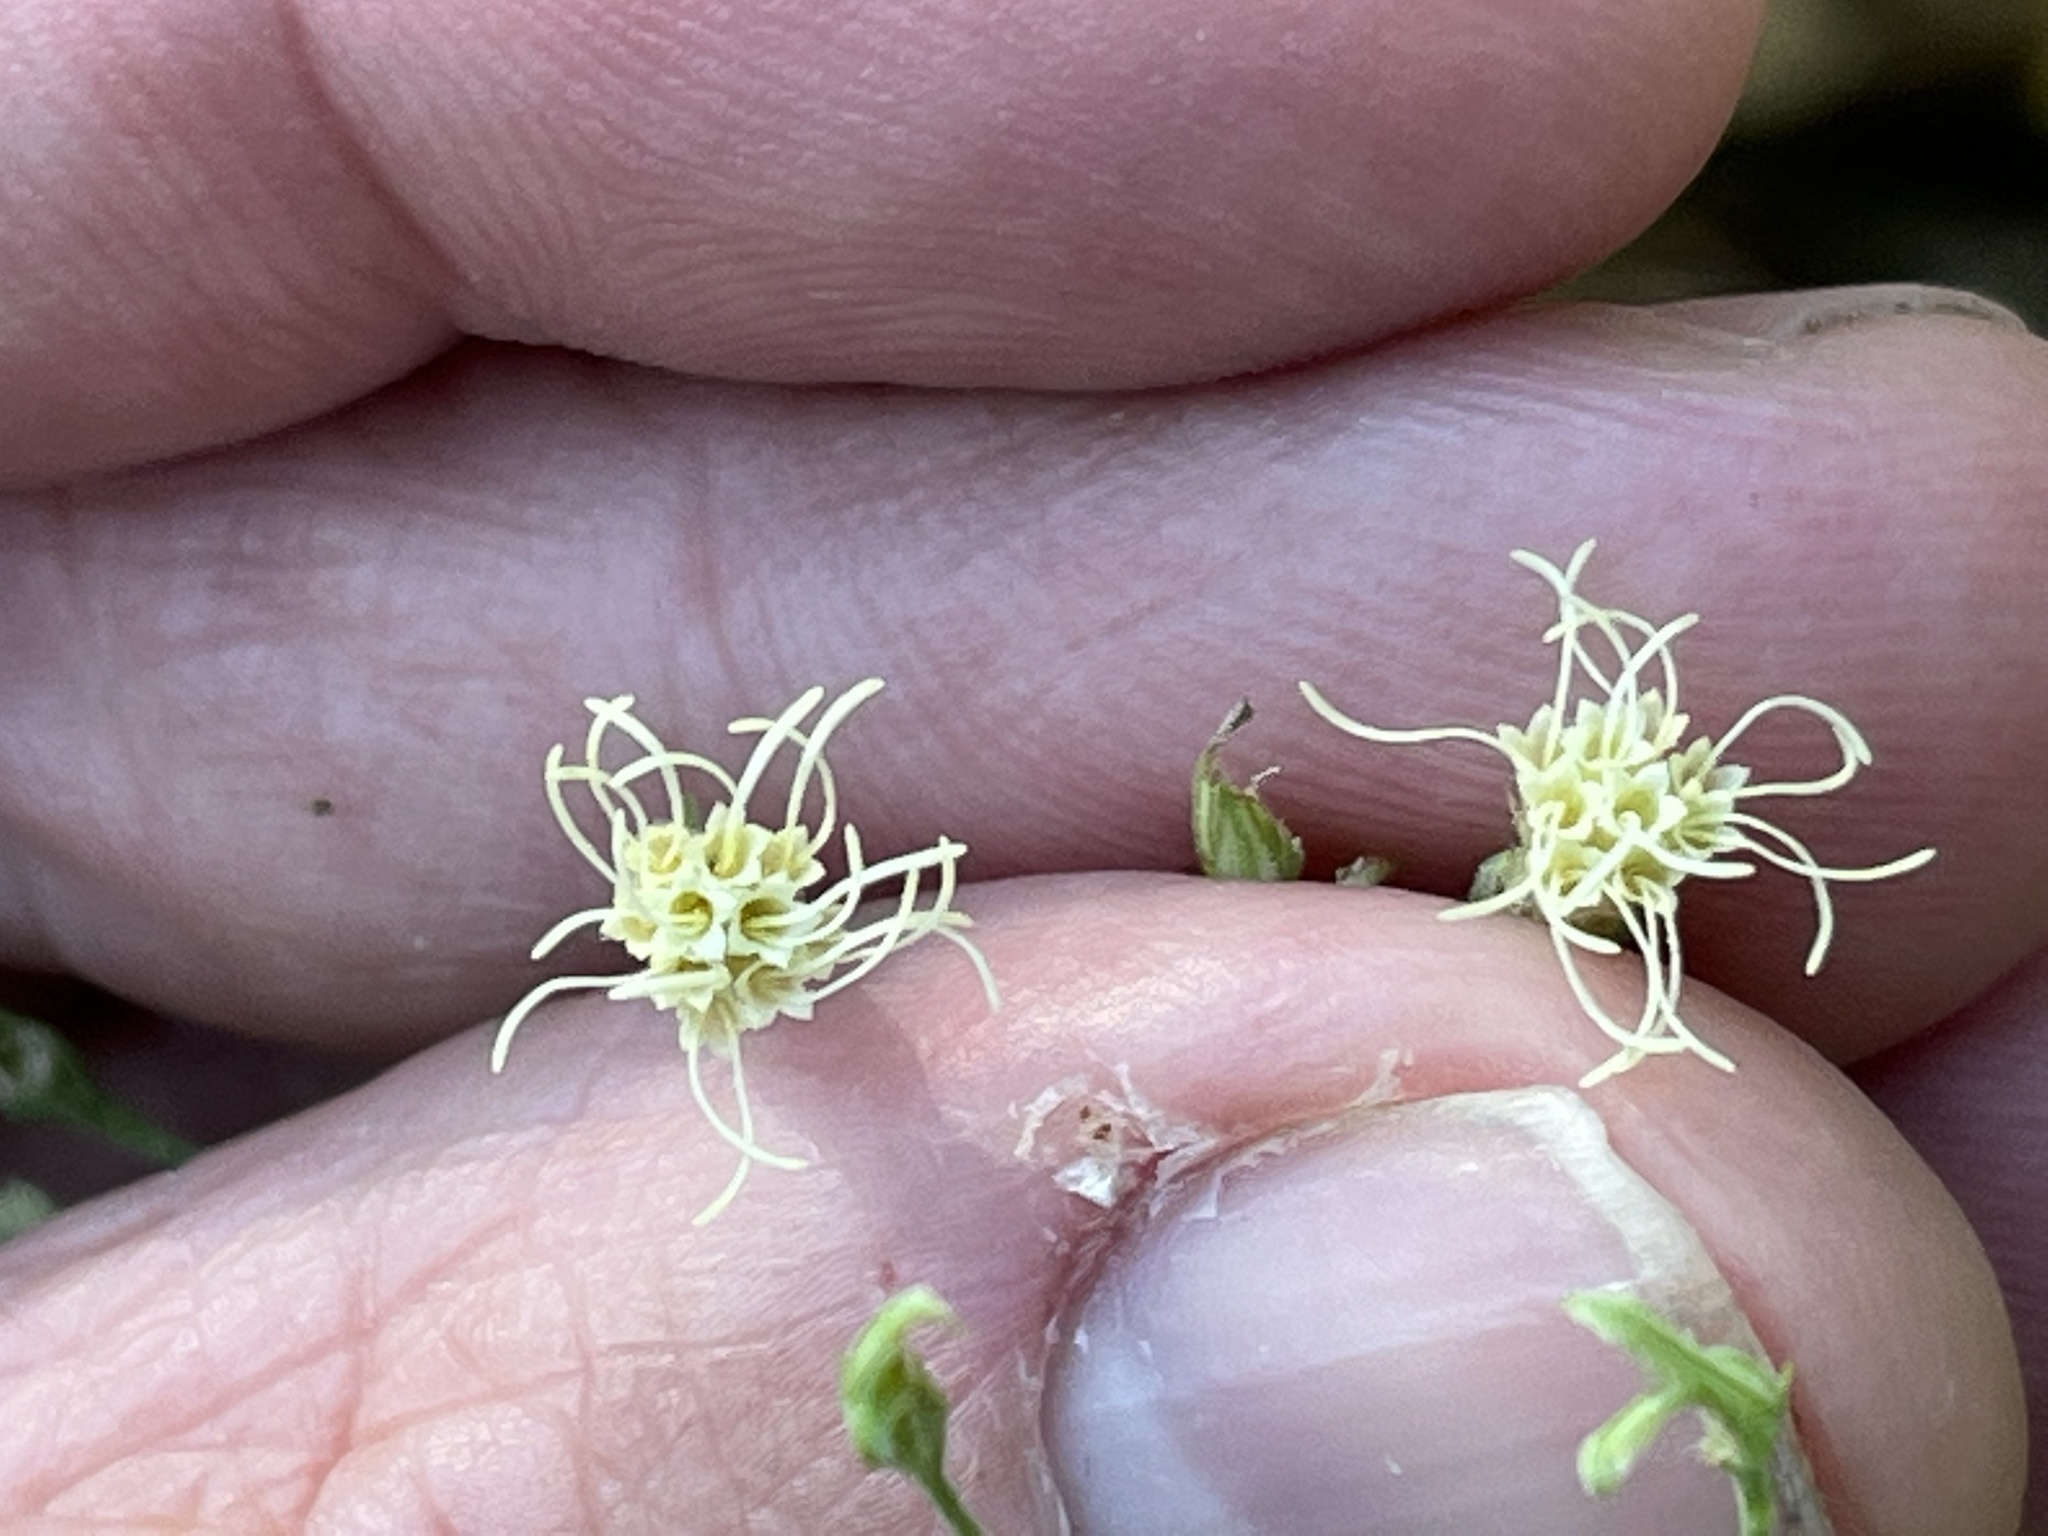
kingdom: Plantae
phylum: Tracheophyta
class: Magnoliopsida
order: Asterales
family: Asteraceae
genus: Brickellia
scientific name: Brickellia eupatorioides
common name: False boneset
